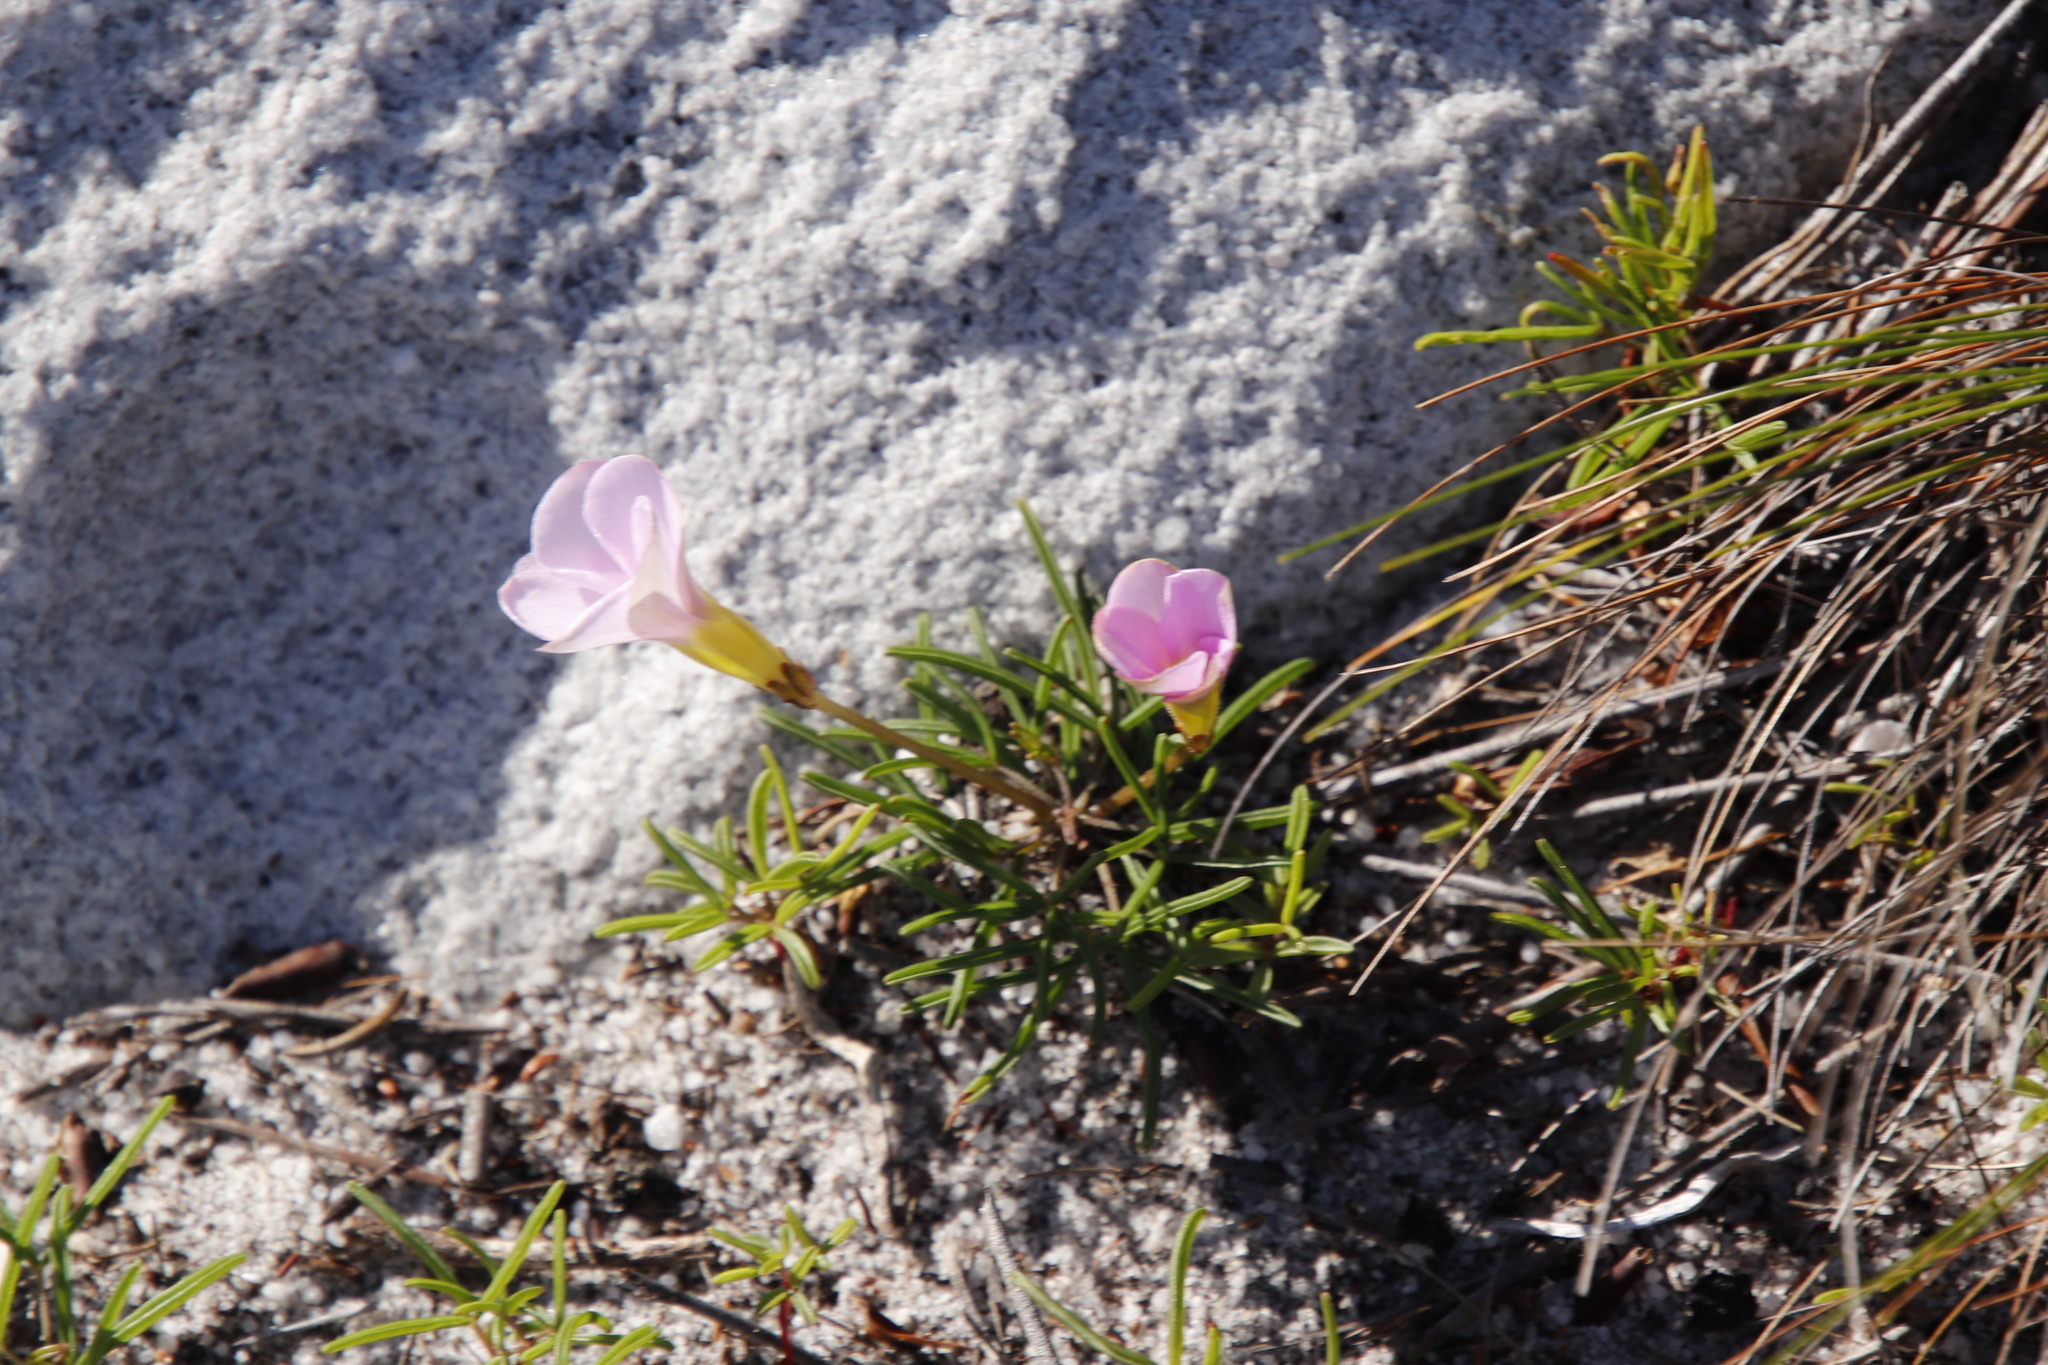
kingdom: Plantae
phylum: Tracheophyta
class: Magnoliopsida
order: Oxalidales
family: Oxalidaceae
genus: Oxalis
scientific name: Oxalis polyphylla
